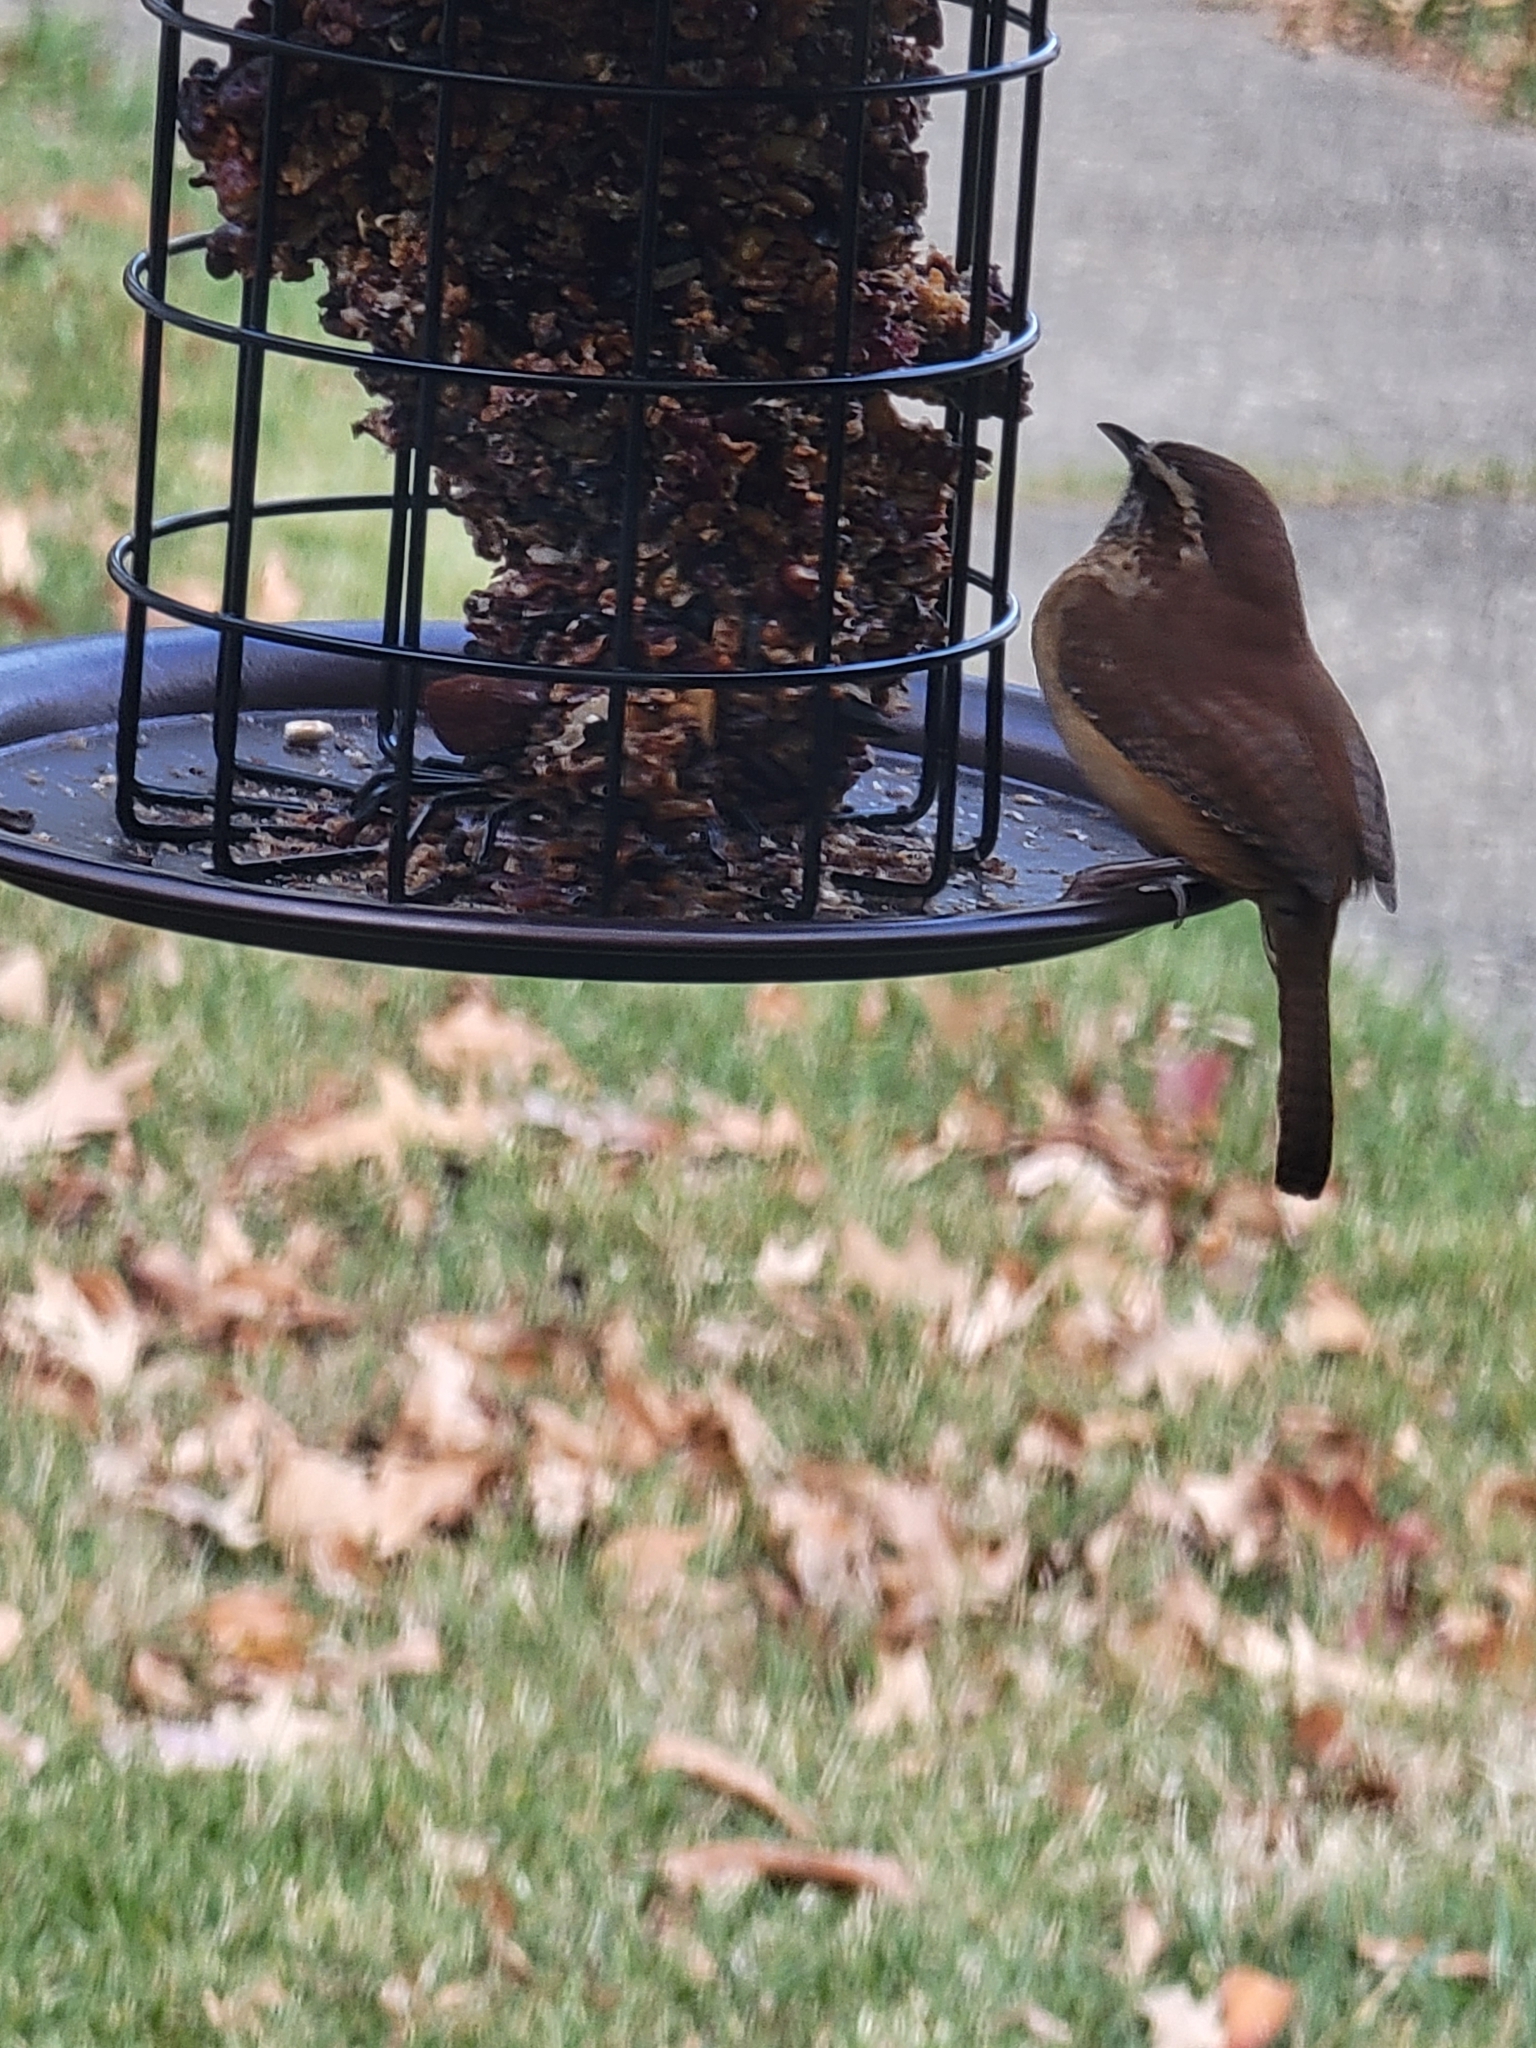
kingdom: Animalia
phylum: Chordata
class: Aves
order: Passeriformes
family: Troglodytidae
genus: Thryothorus
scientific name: Thryothorus ludovicianus
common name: Carolina wren
